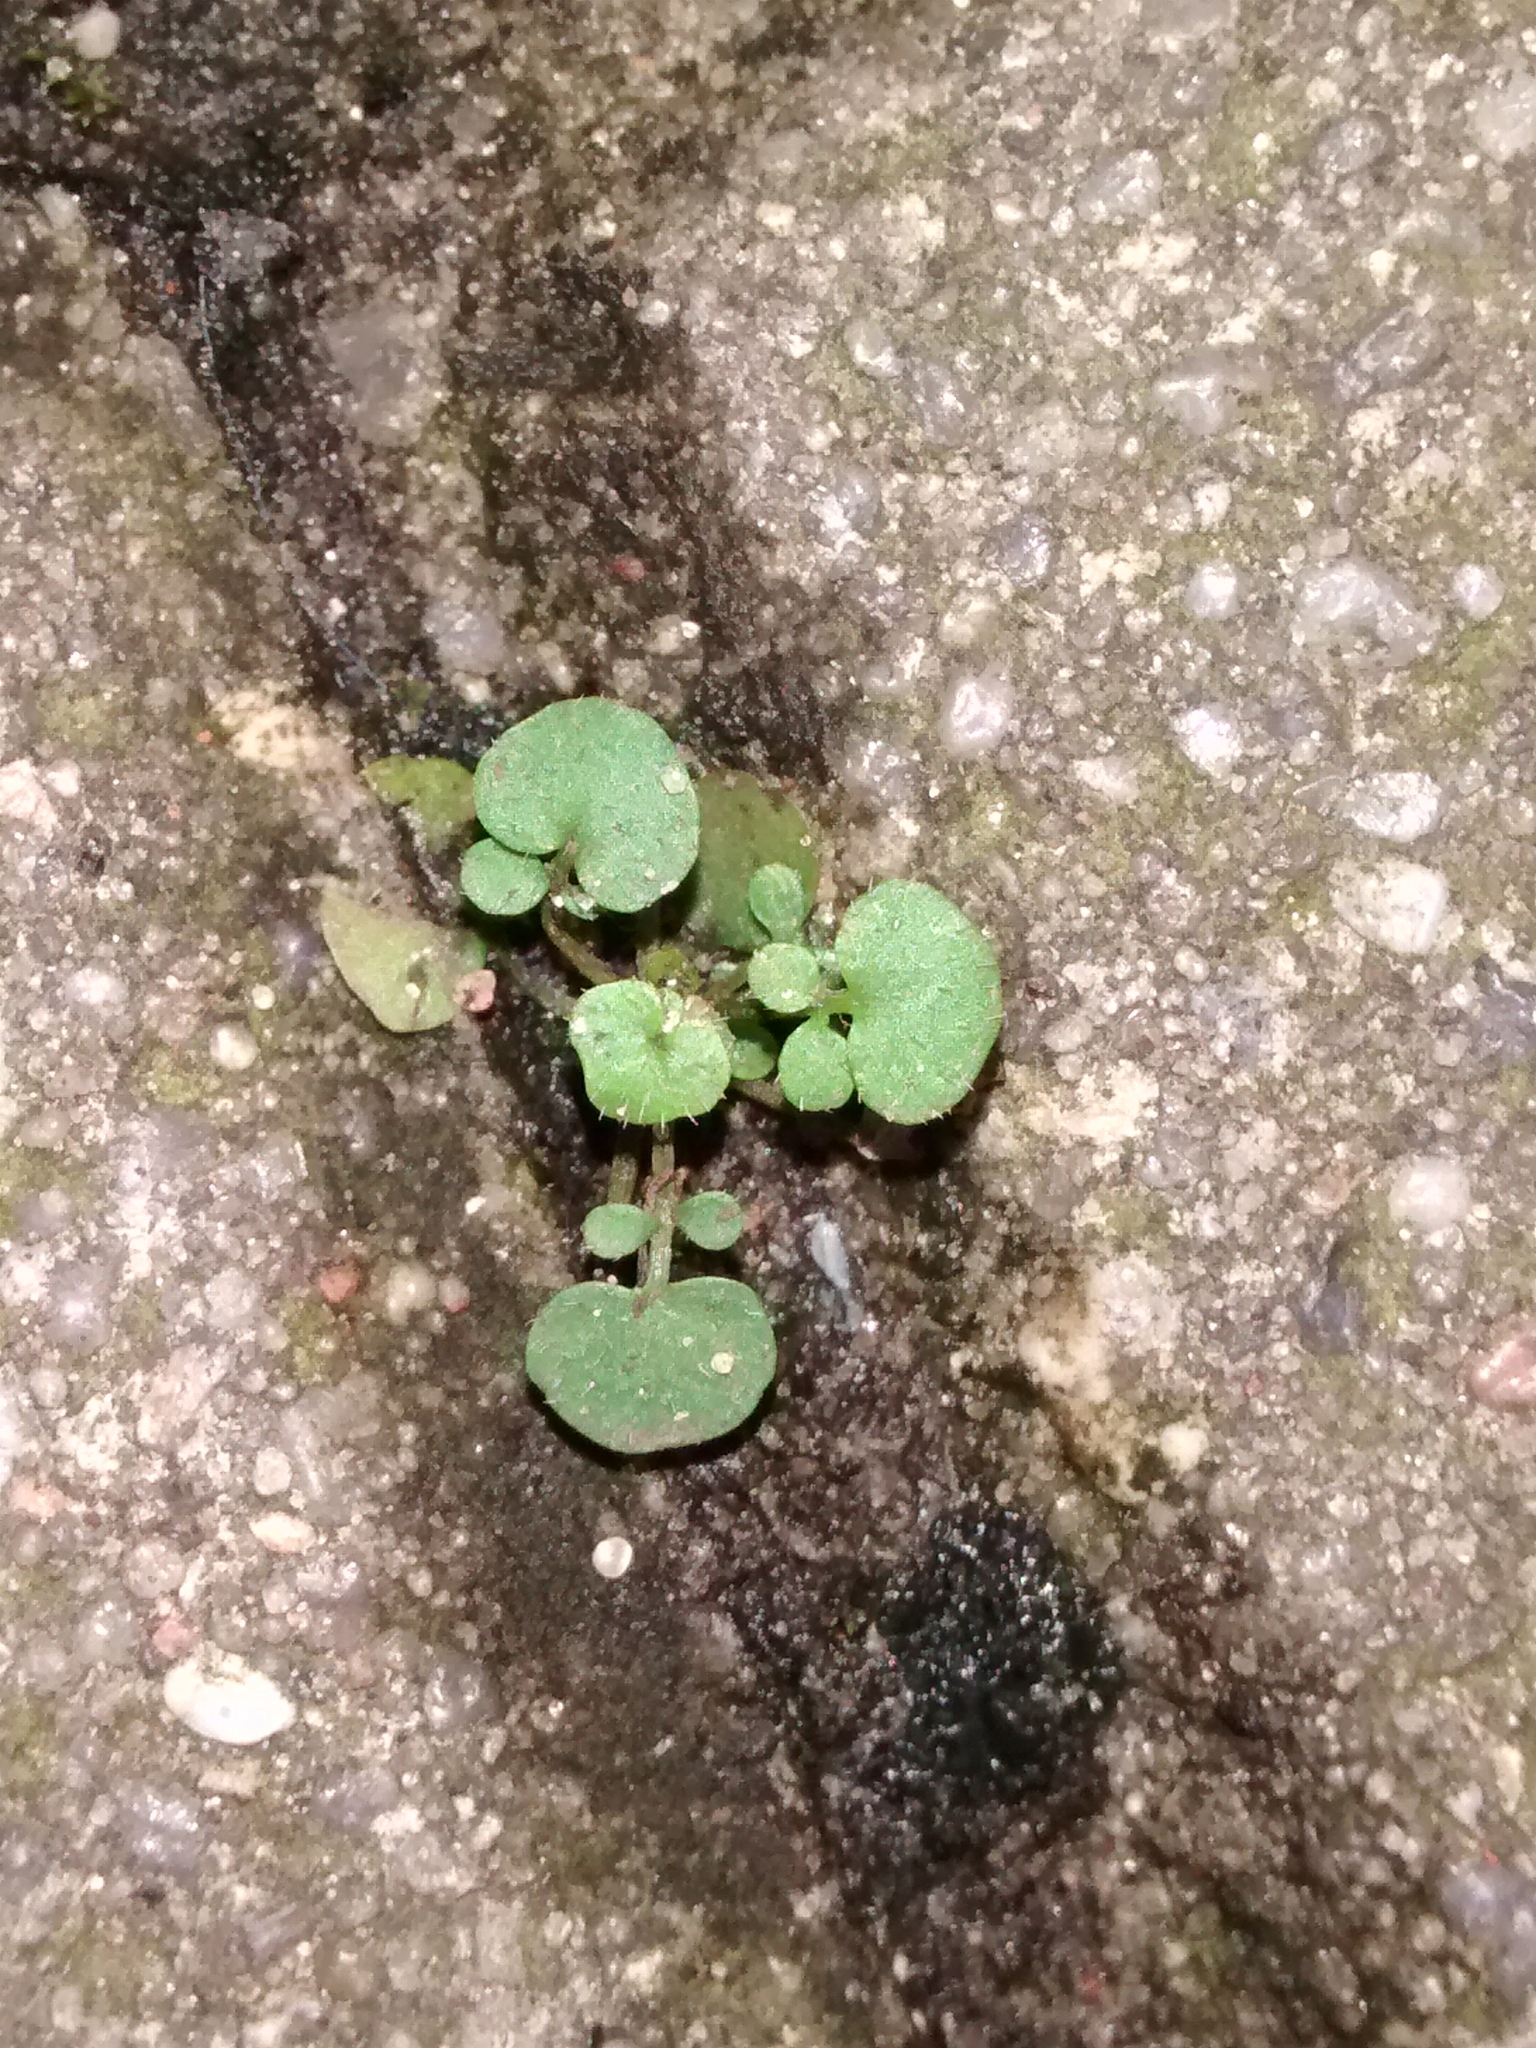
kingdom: Plantae
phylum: Tracheophyta
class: Magnoliopsida
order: Brassicales
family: Brassicaceae
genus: Cardamine
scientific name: Cardamine hirsuta
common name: Hairy bittercress
